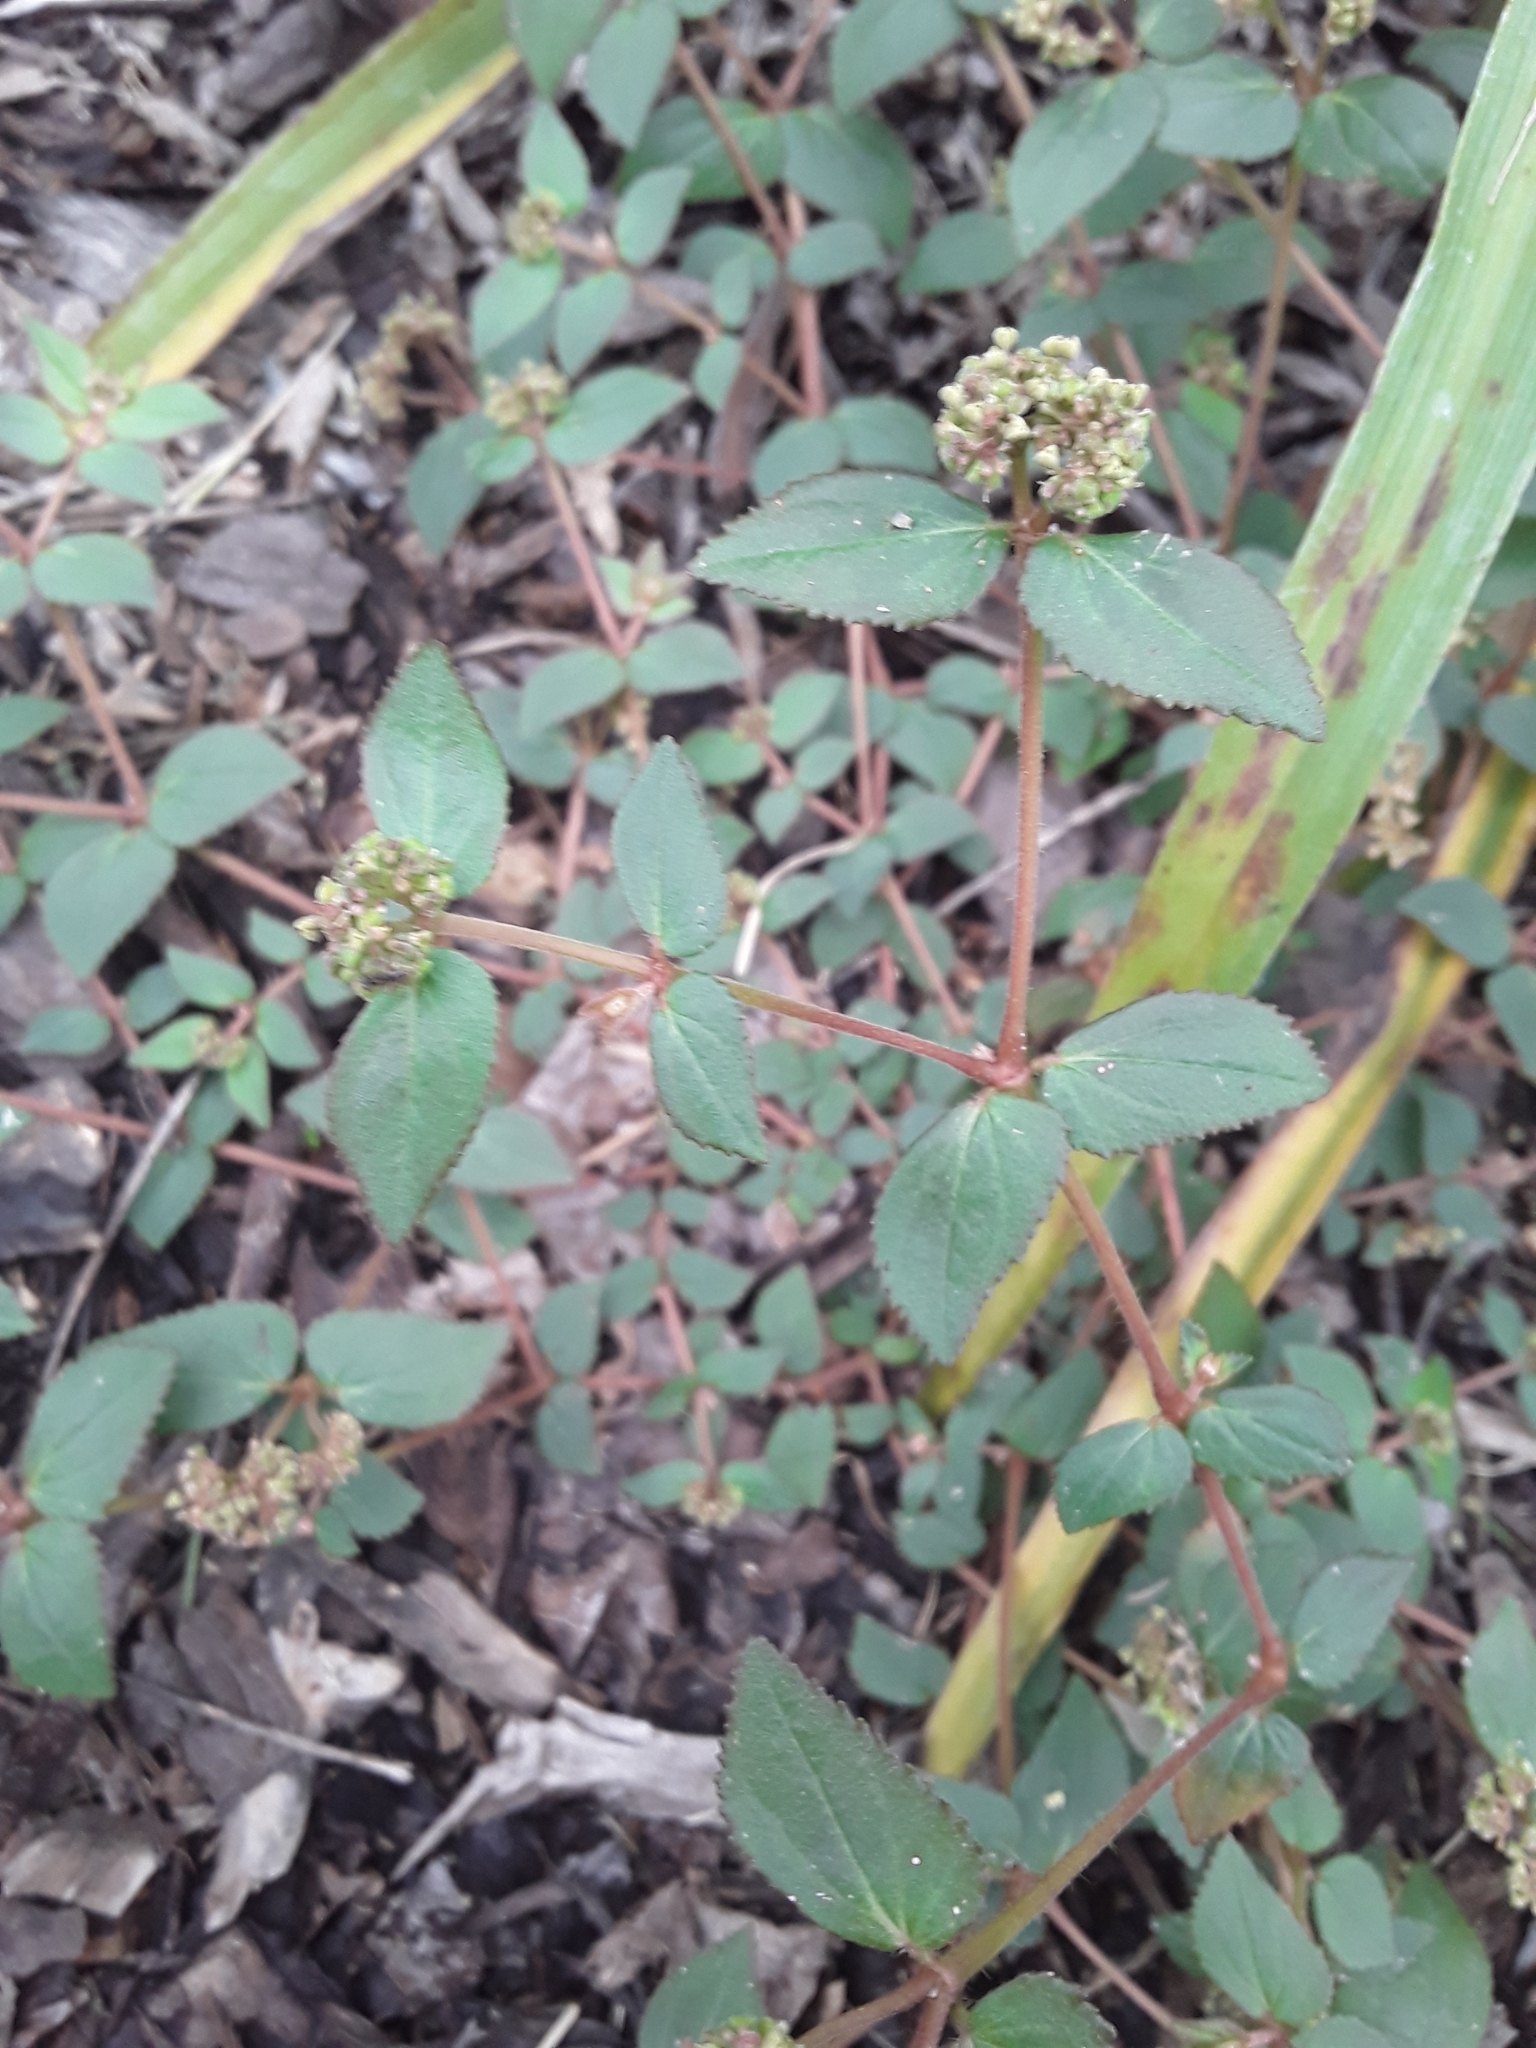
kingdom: Plantae
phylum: Tracheophyta
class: Magnoliopsida
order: Malpighiales
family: Euphorbiaceae
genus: Euphorbia
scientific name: Euphorbia ophthalmica
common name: Florida hammock sandmat
